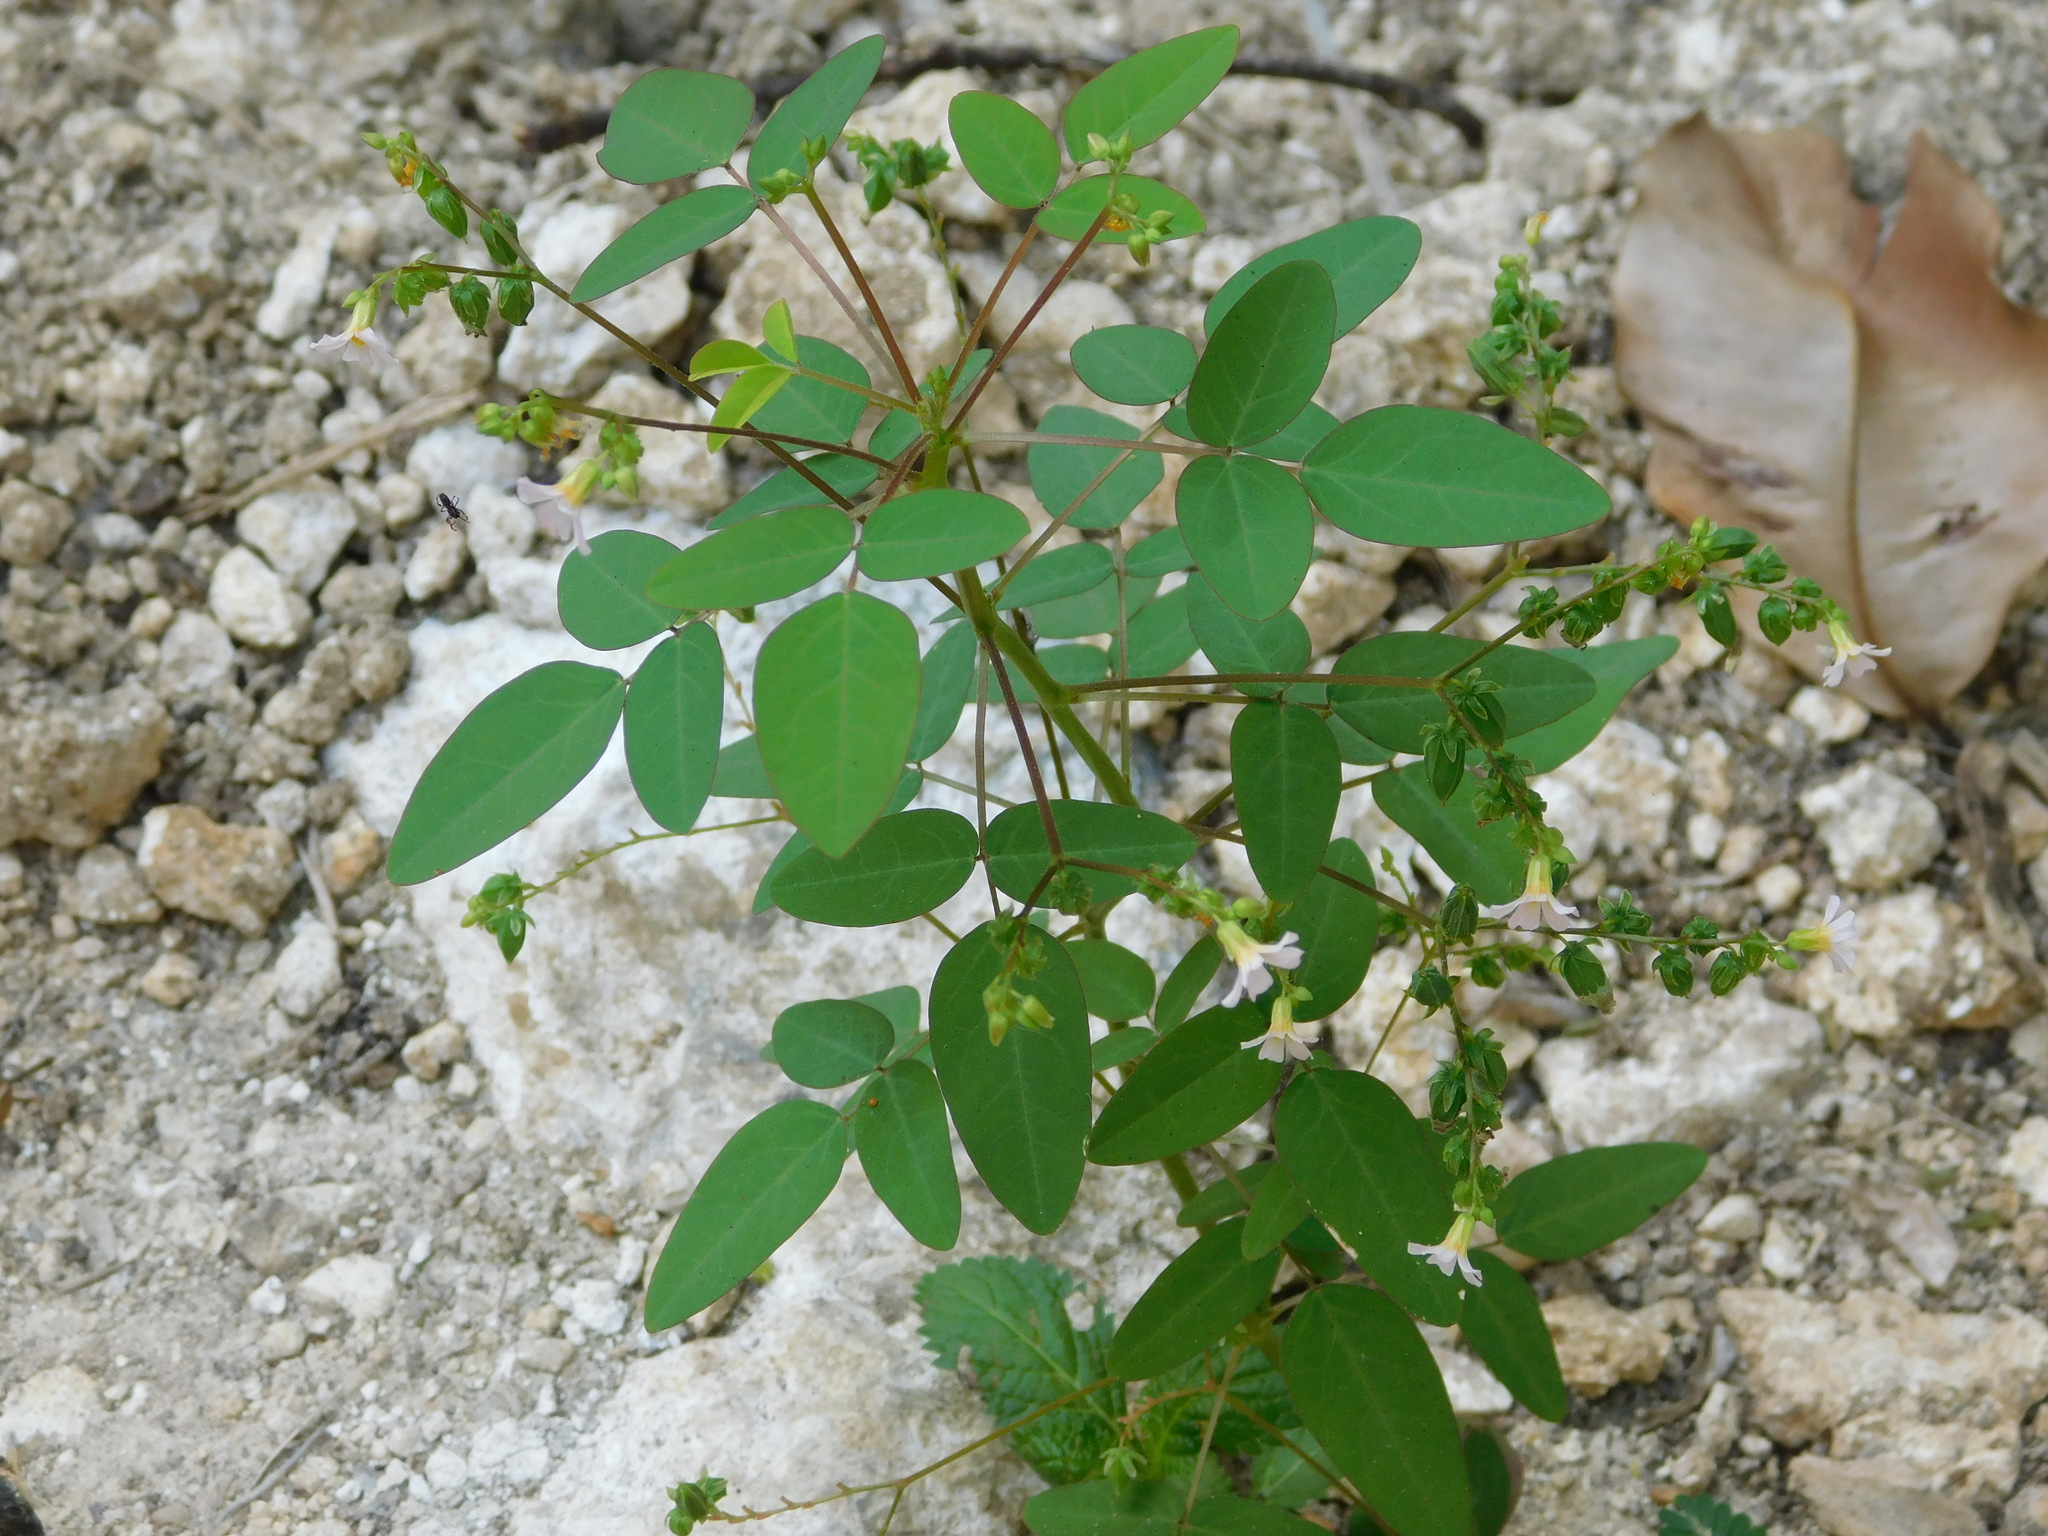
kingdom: Plantae
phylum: Tracheophyta
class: Magnoliopsida
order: Oxalidales
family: Oxalidaceae
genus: Oxalis
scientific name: Oxalis barrelieri
